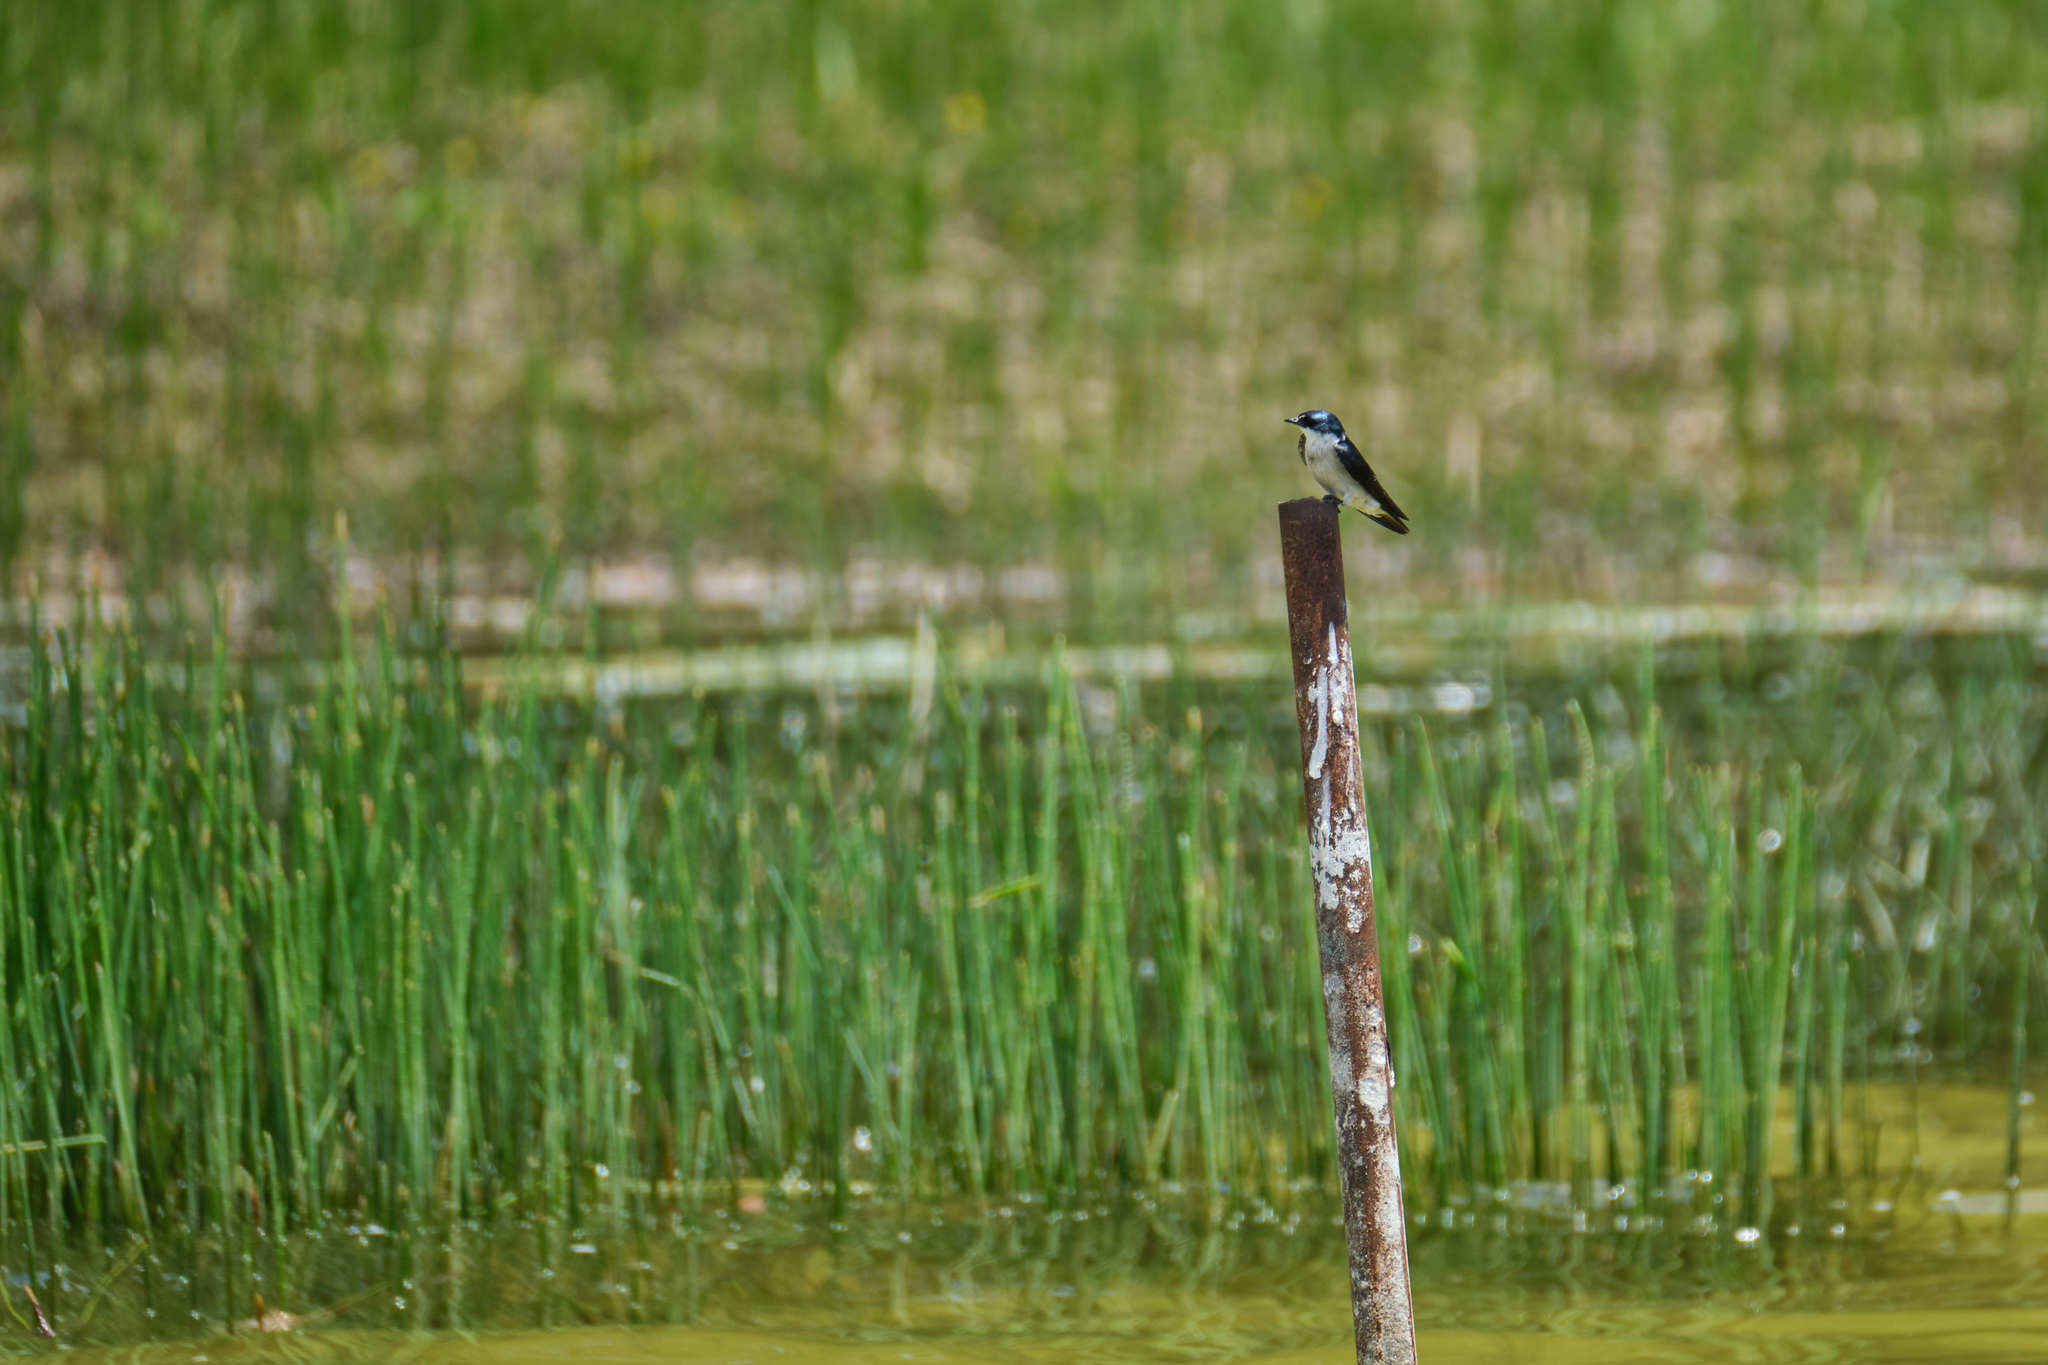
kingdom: Animalia
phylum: Chordata
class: Aves
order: Passeriformes
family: Hirundinidae
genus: Tachycineta
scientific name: Tachycineta albilinea
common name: Mangrove swallow
